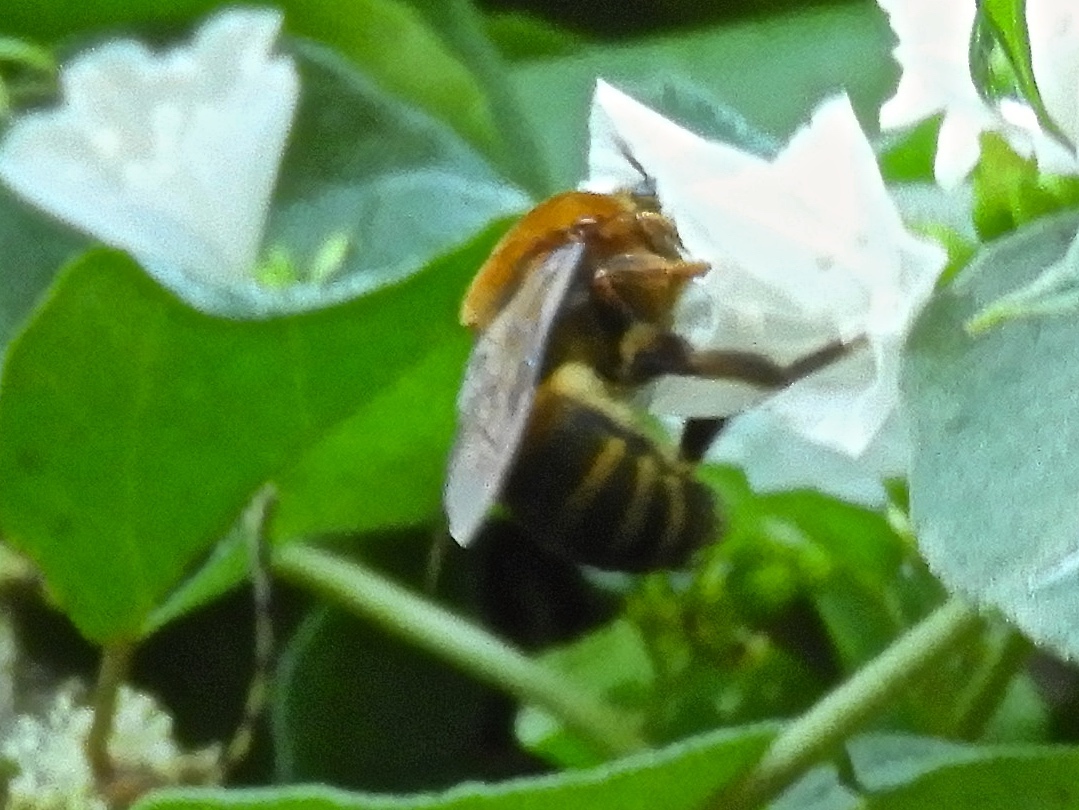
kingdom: Animalia
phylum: Arthropoda
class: Insecta
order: Hymenoptera
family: Colletidae
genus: Ptiloglossa
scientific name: Ptiloglossa
